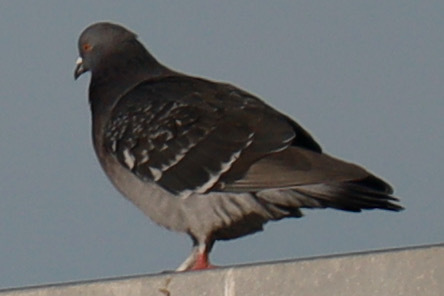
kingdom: Animalia
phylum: Chordata
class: Aves
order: Columbiformes
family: Columbidae
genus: Columba
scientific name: Columba livia
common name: Rock pigeon
